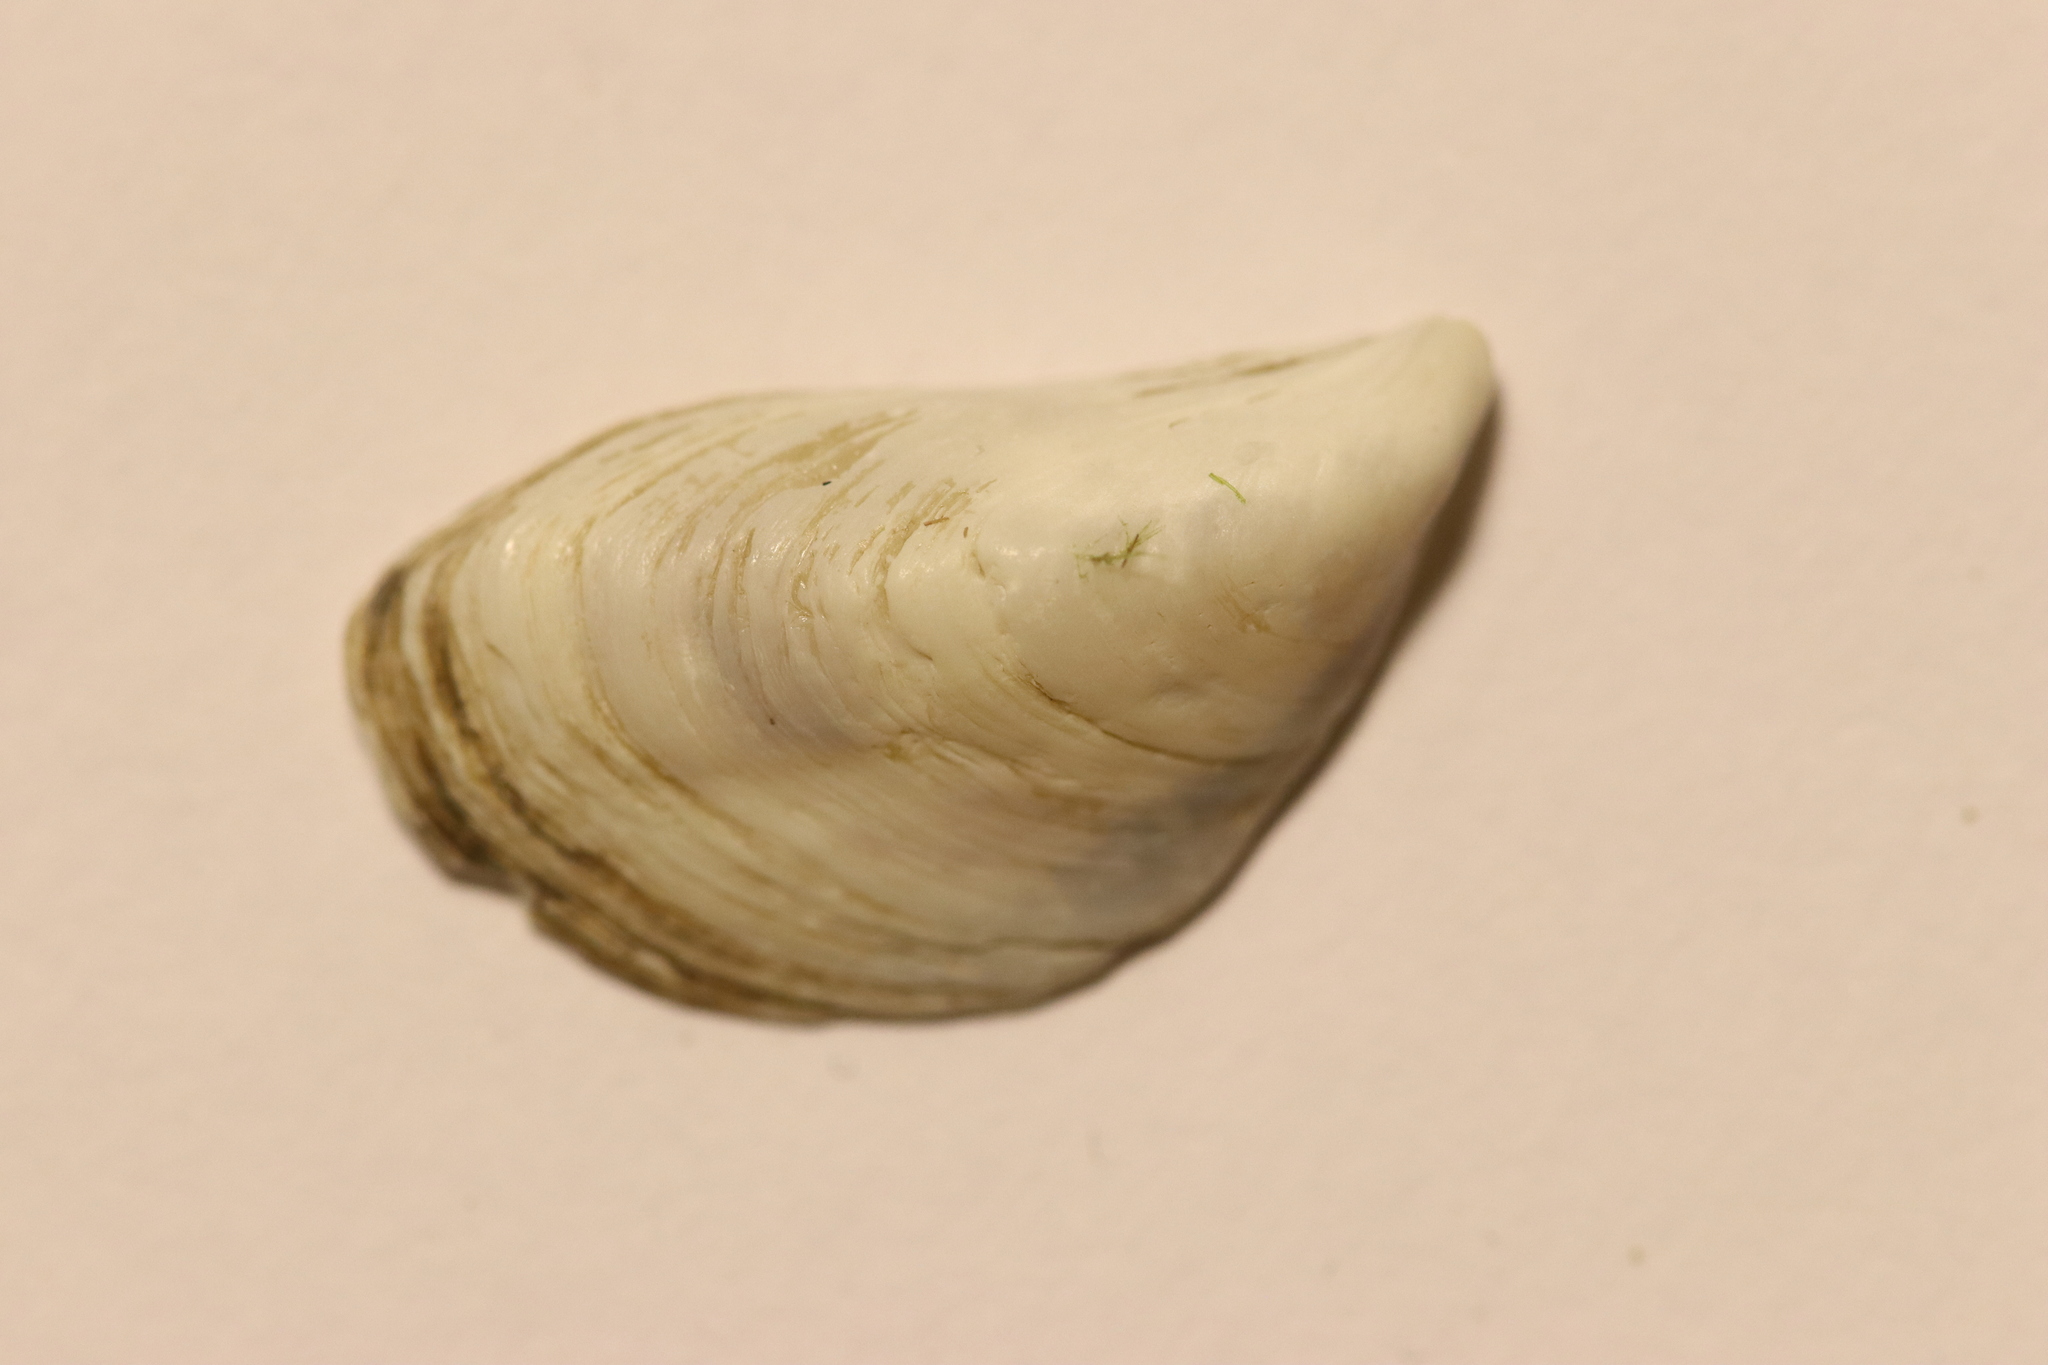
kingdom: Animalia
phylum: Mollusca
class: Bivalvia
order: Myida
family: Dreissenidae
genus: Dreissena
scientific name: Dreissena bugensis
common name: Quagga mussel
